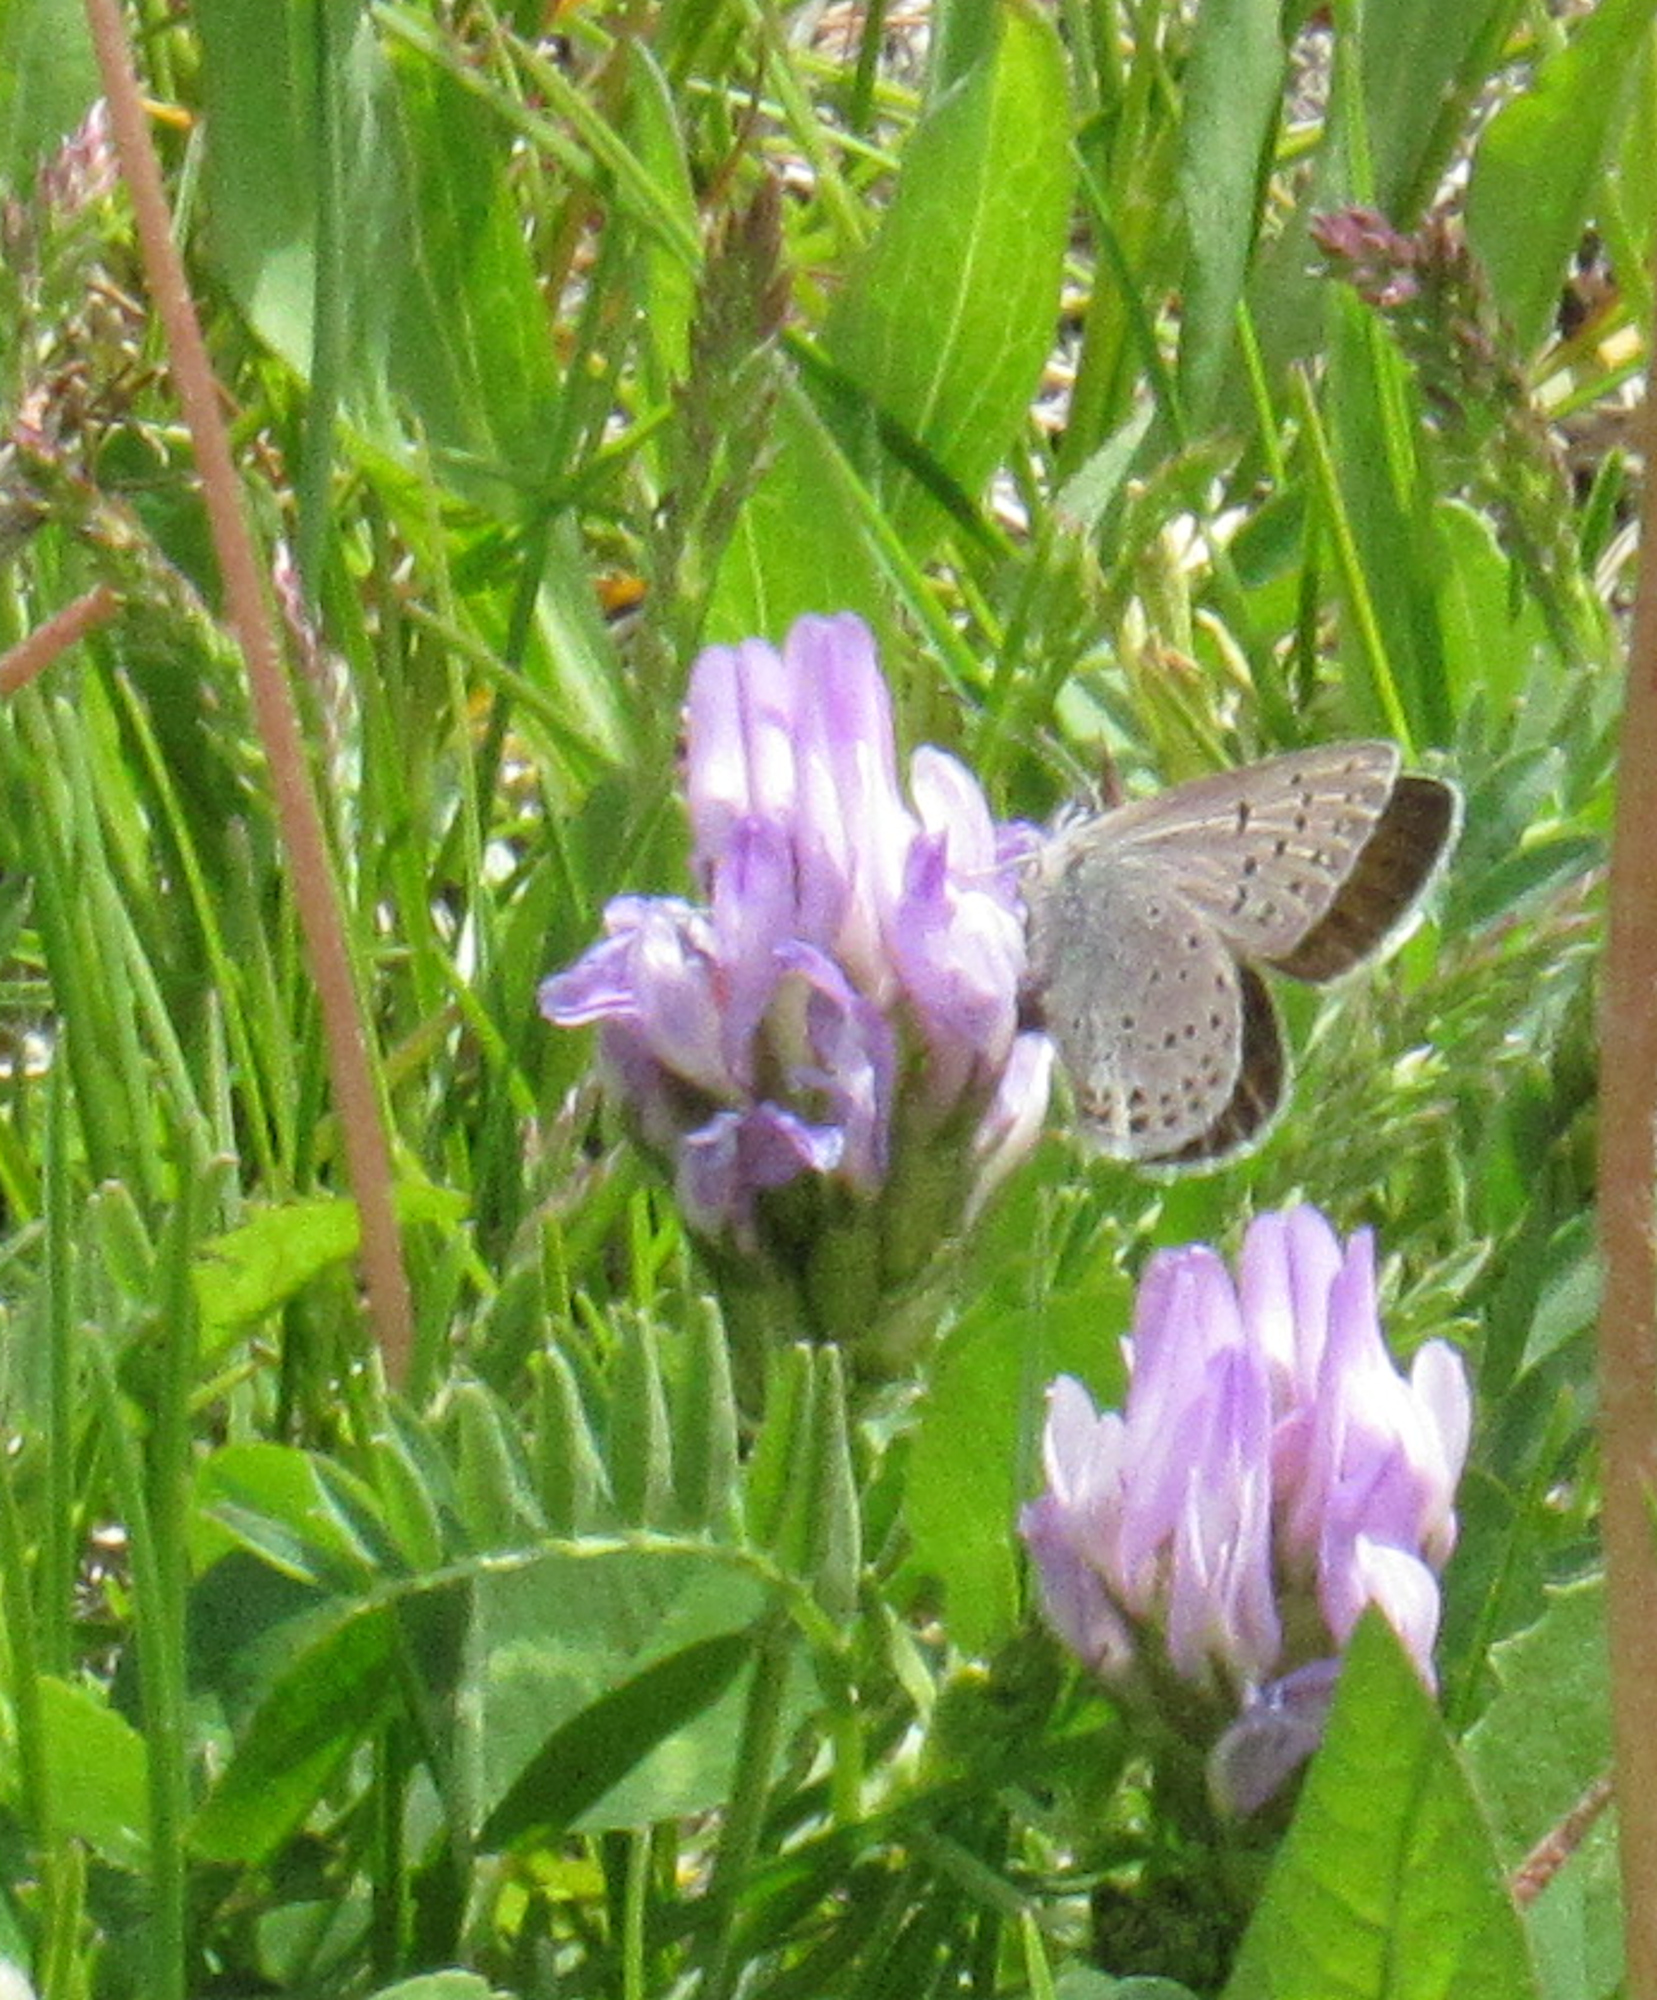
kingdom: Animalia
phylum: Arthropoda
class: Insecta
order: Lepidoptera
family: Lycaenidae
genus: Icaricia
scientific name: Icaricia saepiolus
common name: Greenish blue
